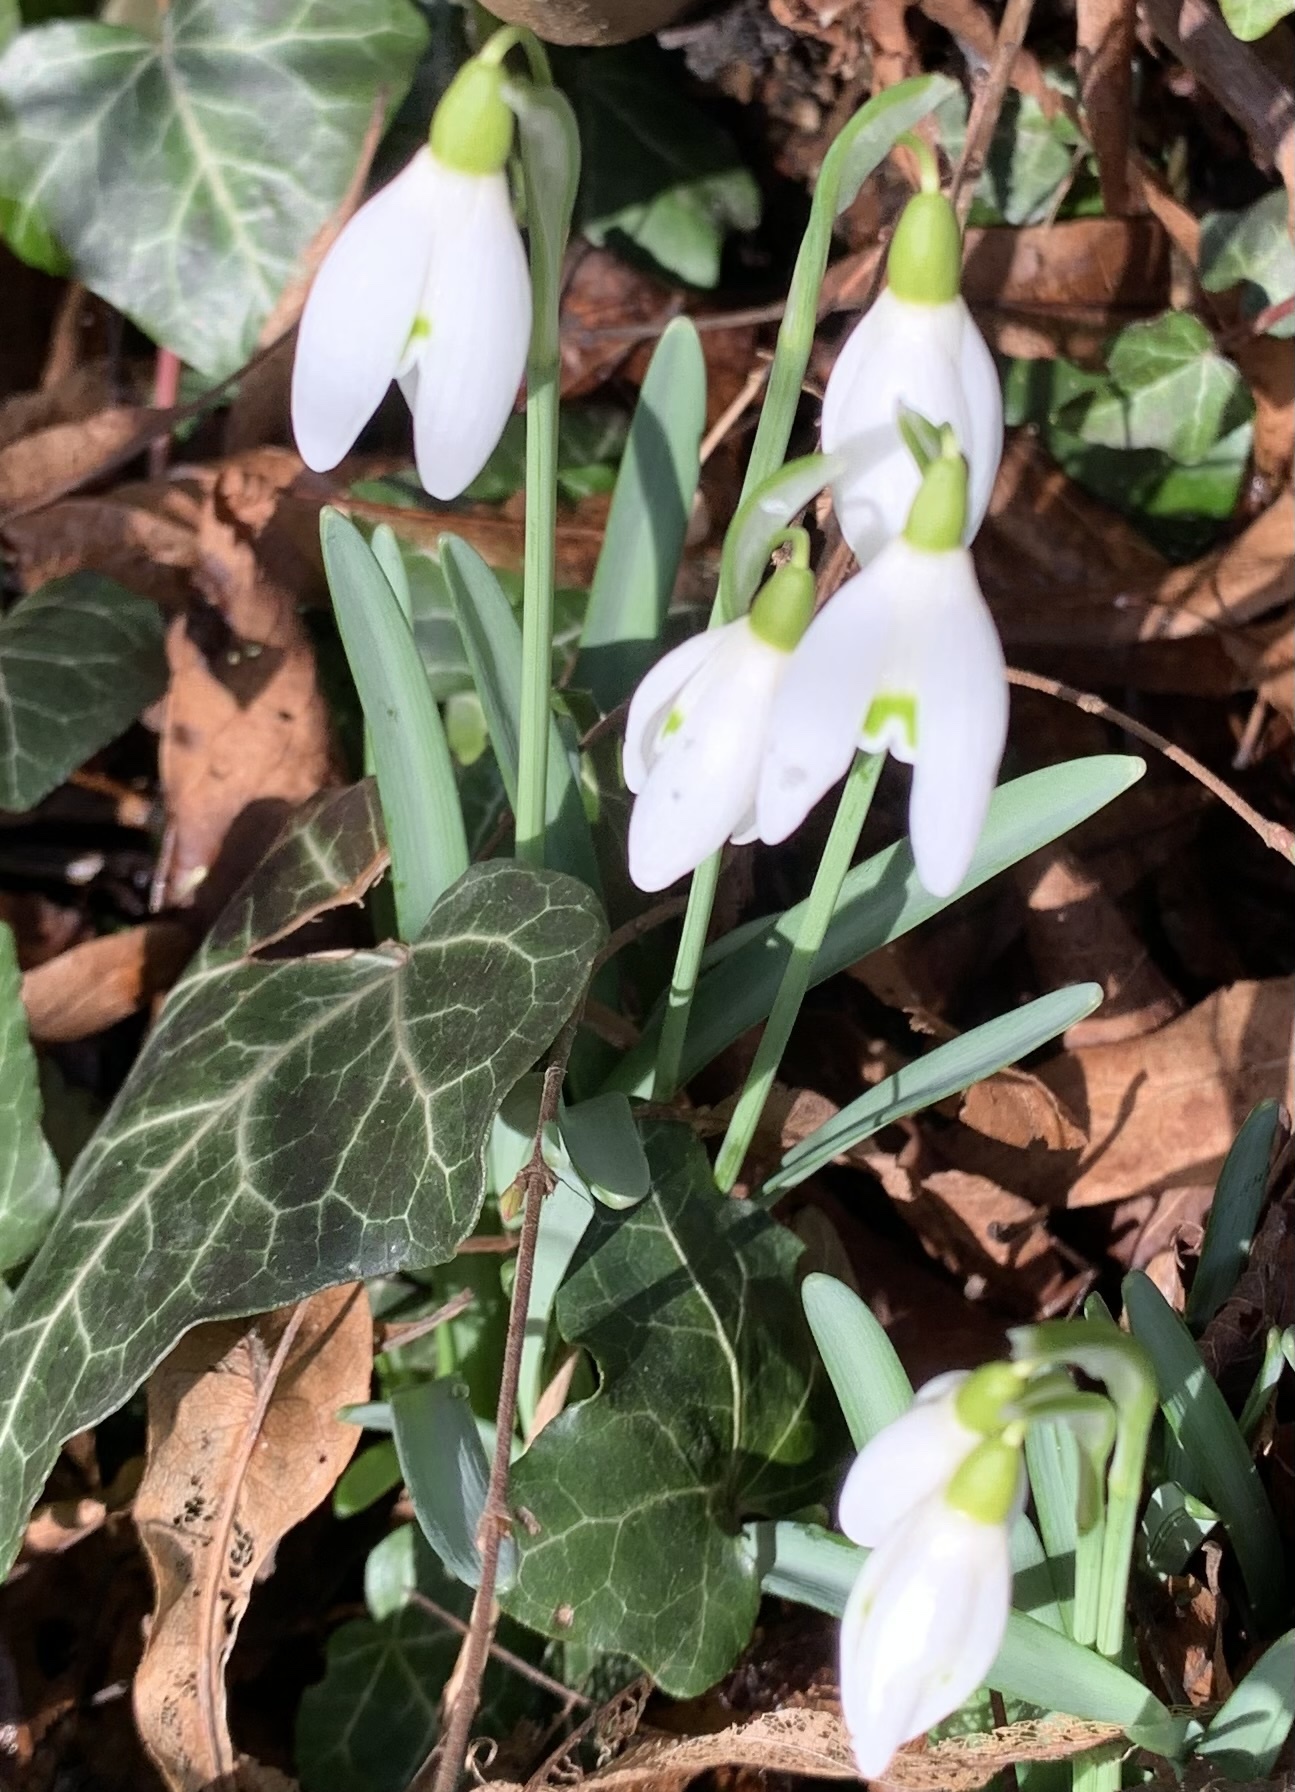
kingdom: Plantae
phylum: Tracheophyta
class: Liliopsida
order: Asparagales
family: Amaryllidaceae
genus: Galanthus
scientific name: Galanthus nivalis
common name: Snowdrop
